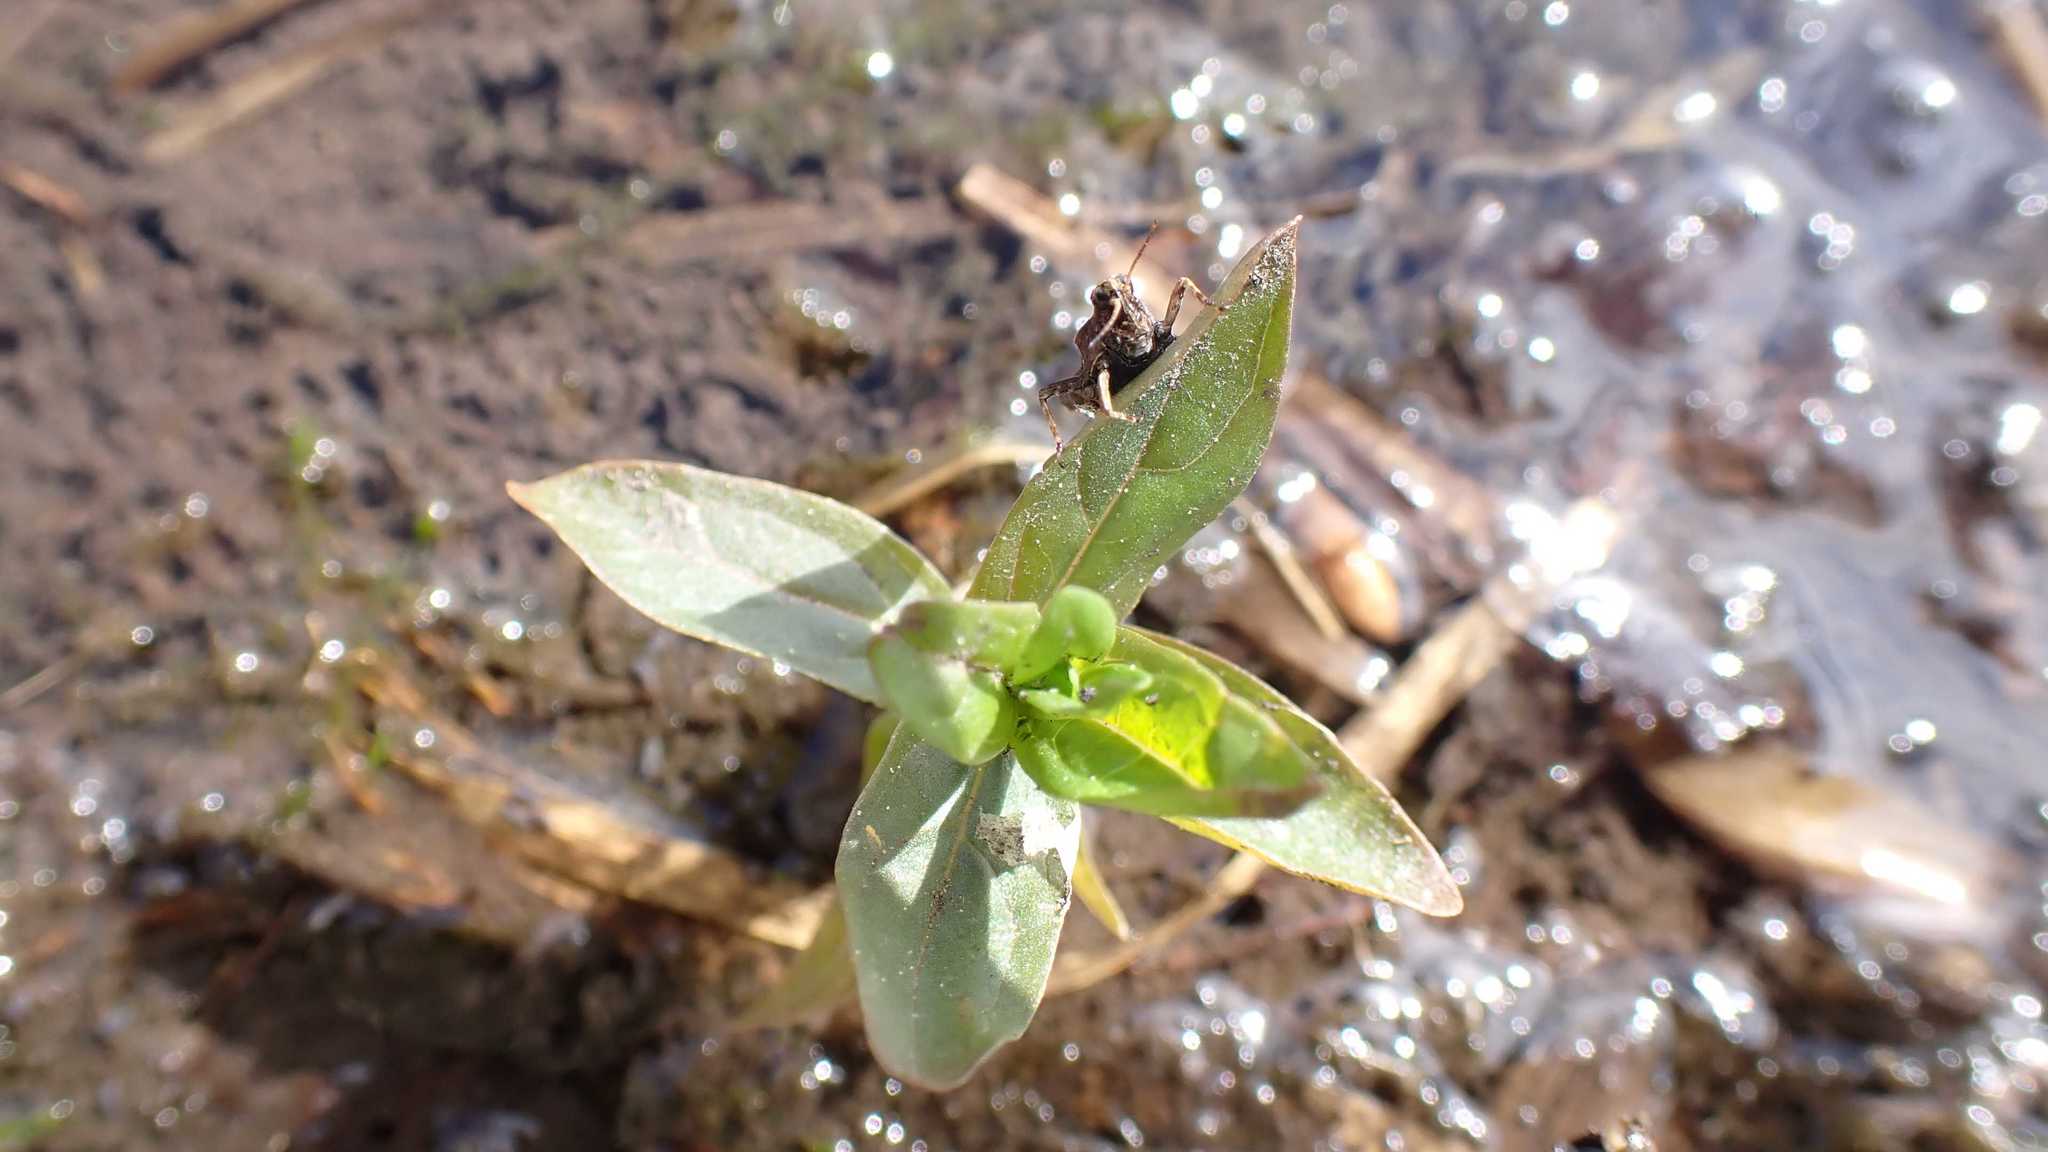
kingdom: Animalia
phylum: Arthropoda
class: Insecta
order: Orthoptera
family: Tetrigidae
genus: Tetrix
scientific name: Tetrix subulata
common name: Slender ground-hopper
